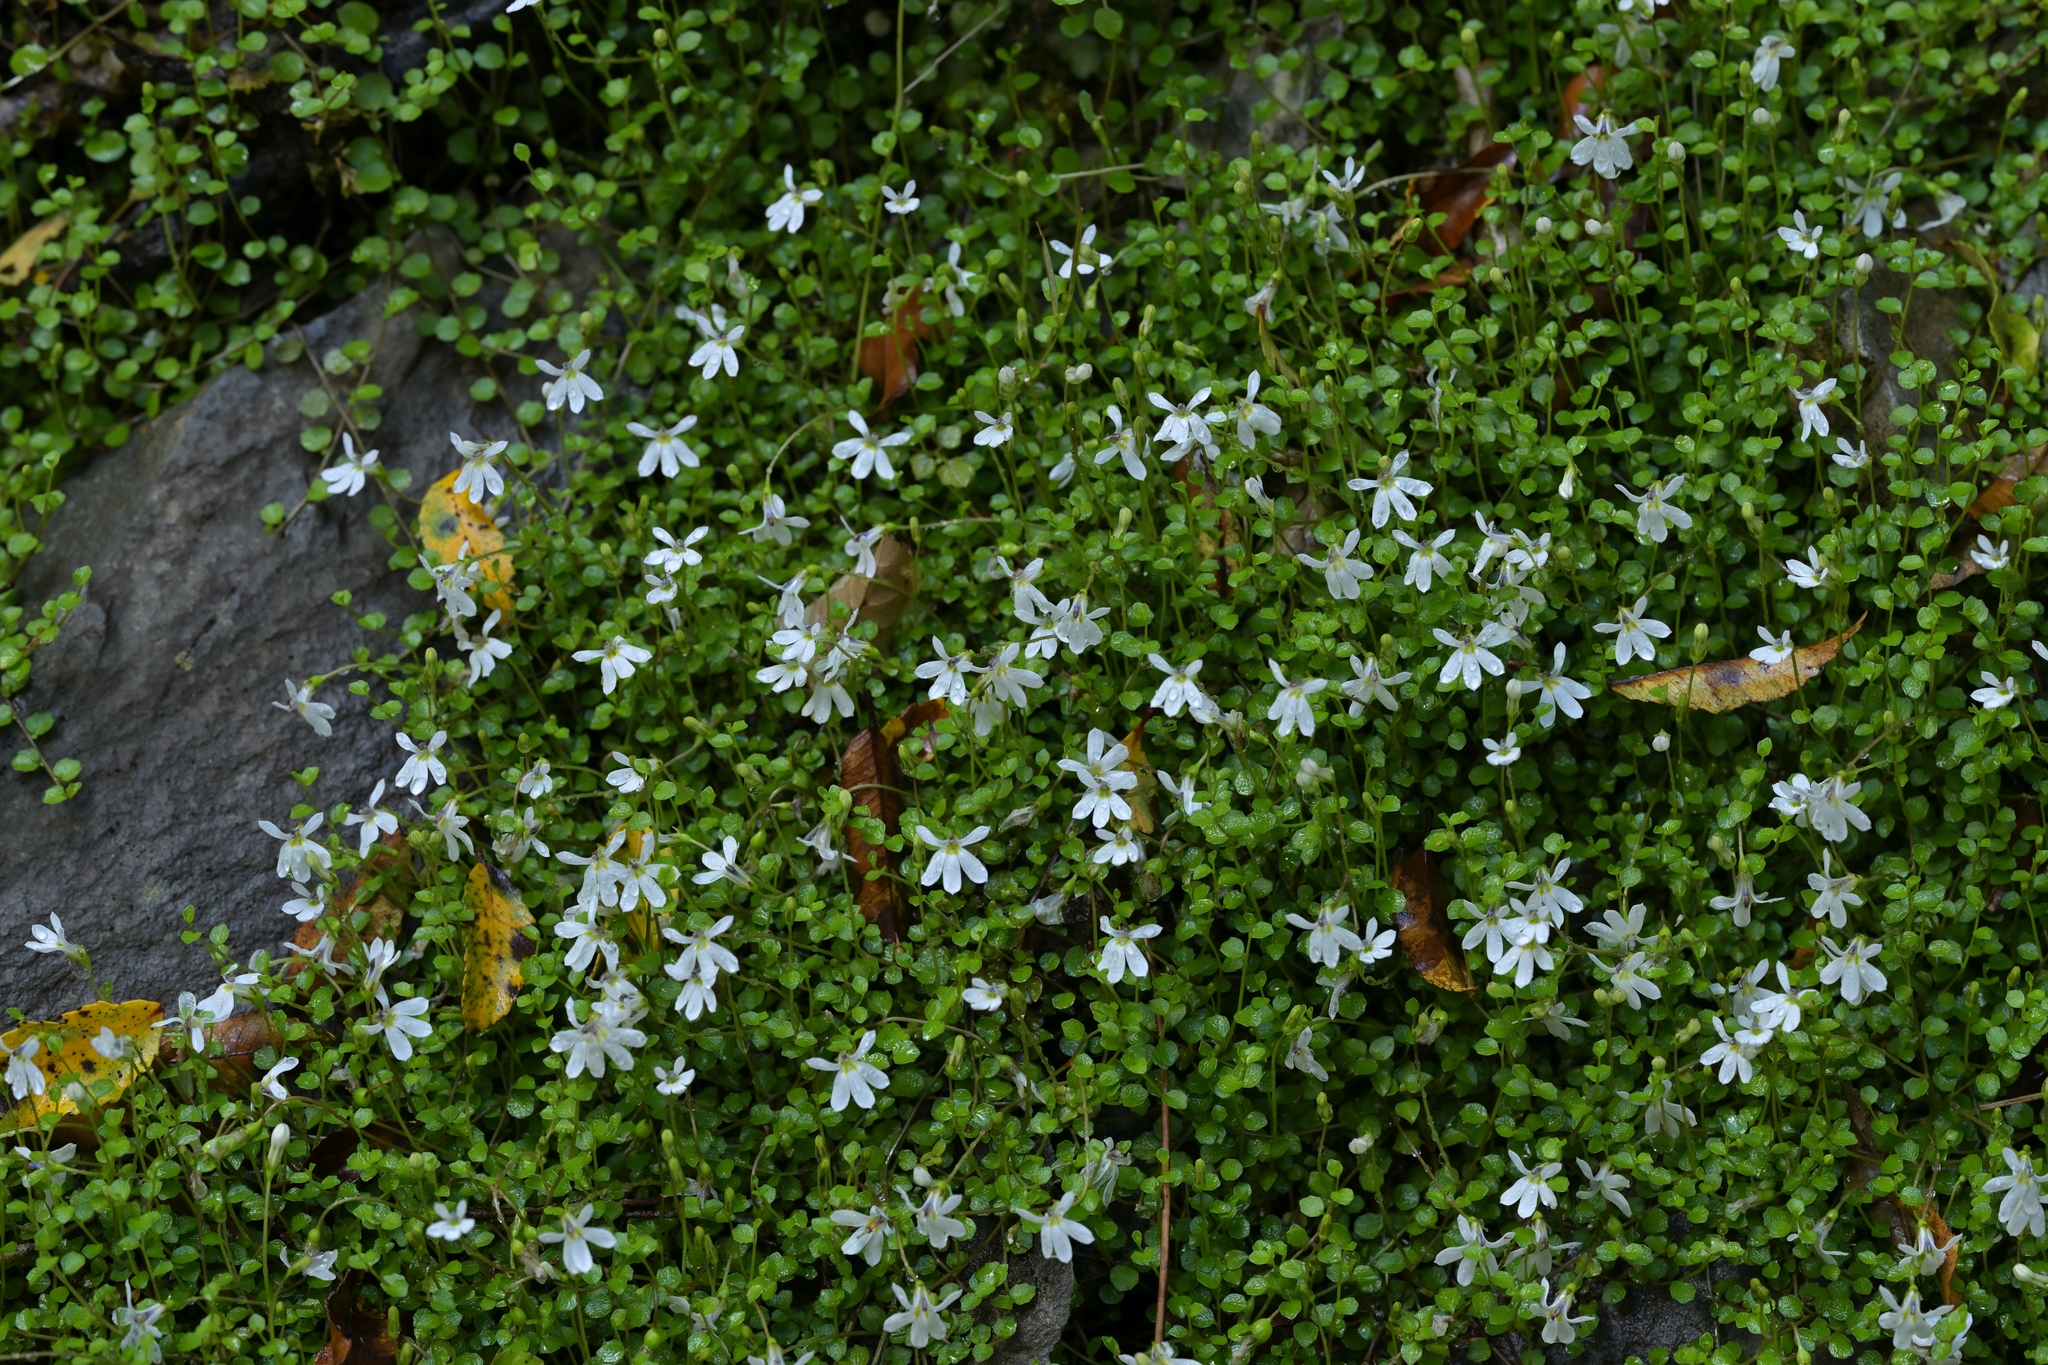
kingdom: Plantae
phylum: Tracheophyta
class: Magnoliopsida
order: Asterales
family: Campanulaceae
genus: Lobelia
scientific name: Lobelia angulata
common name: Lawn lobelia
